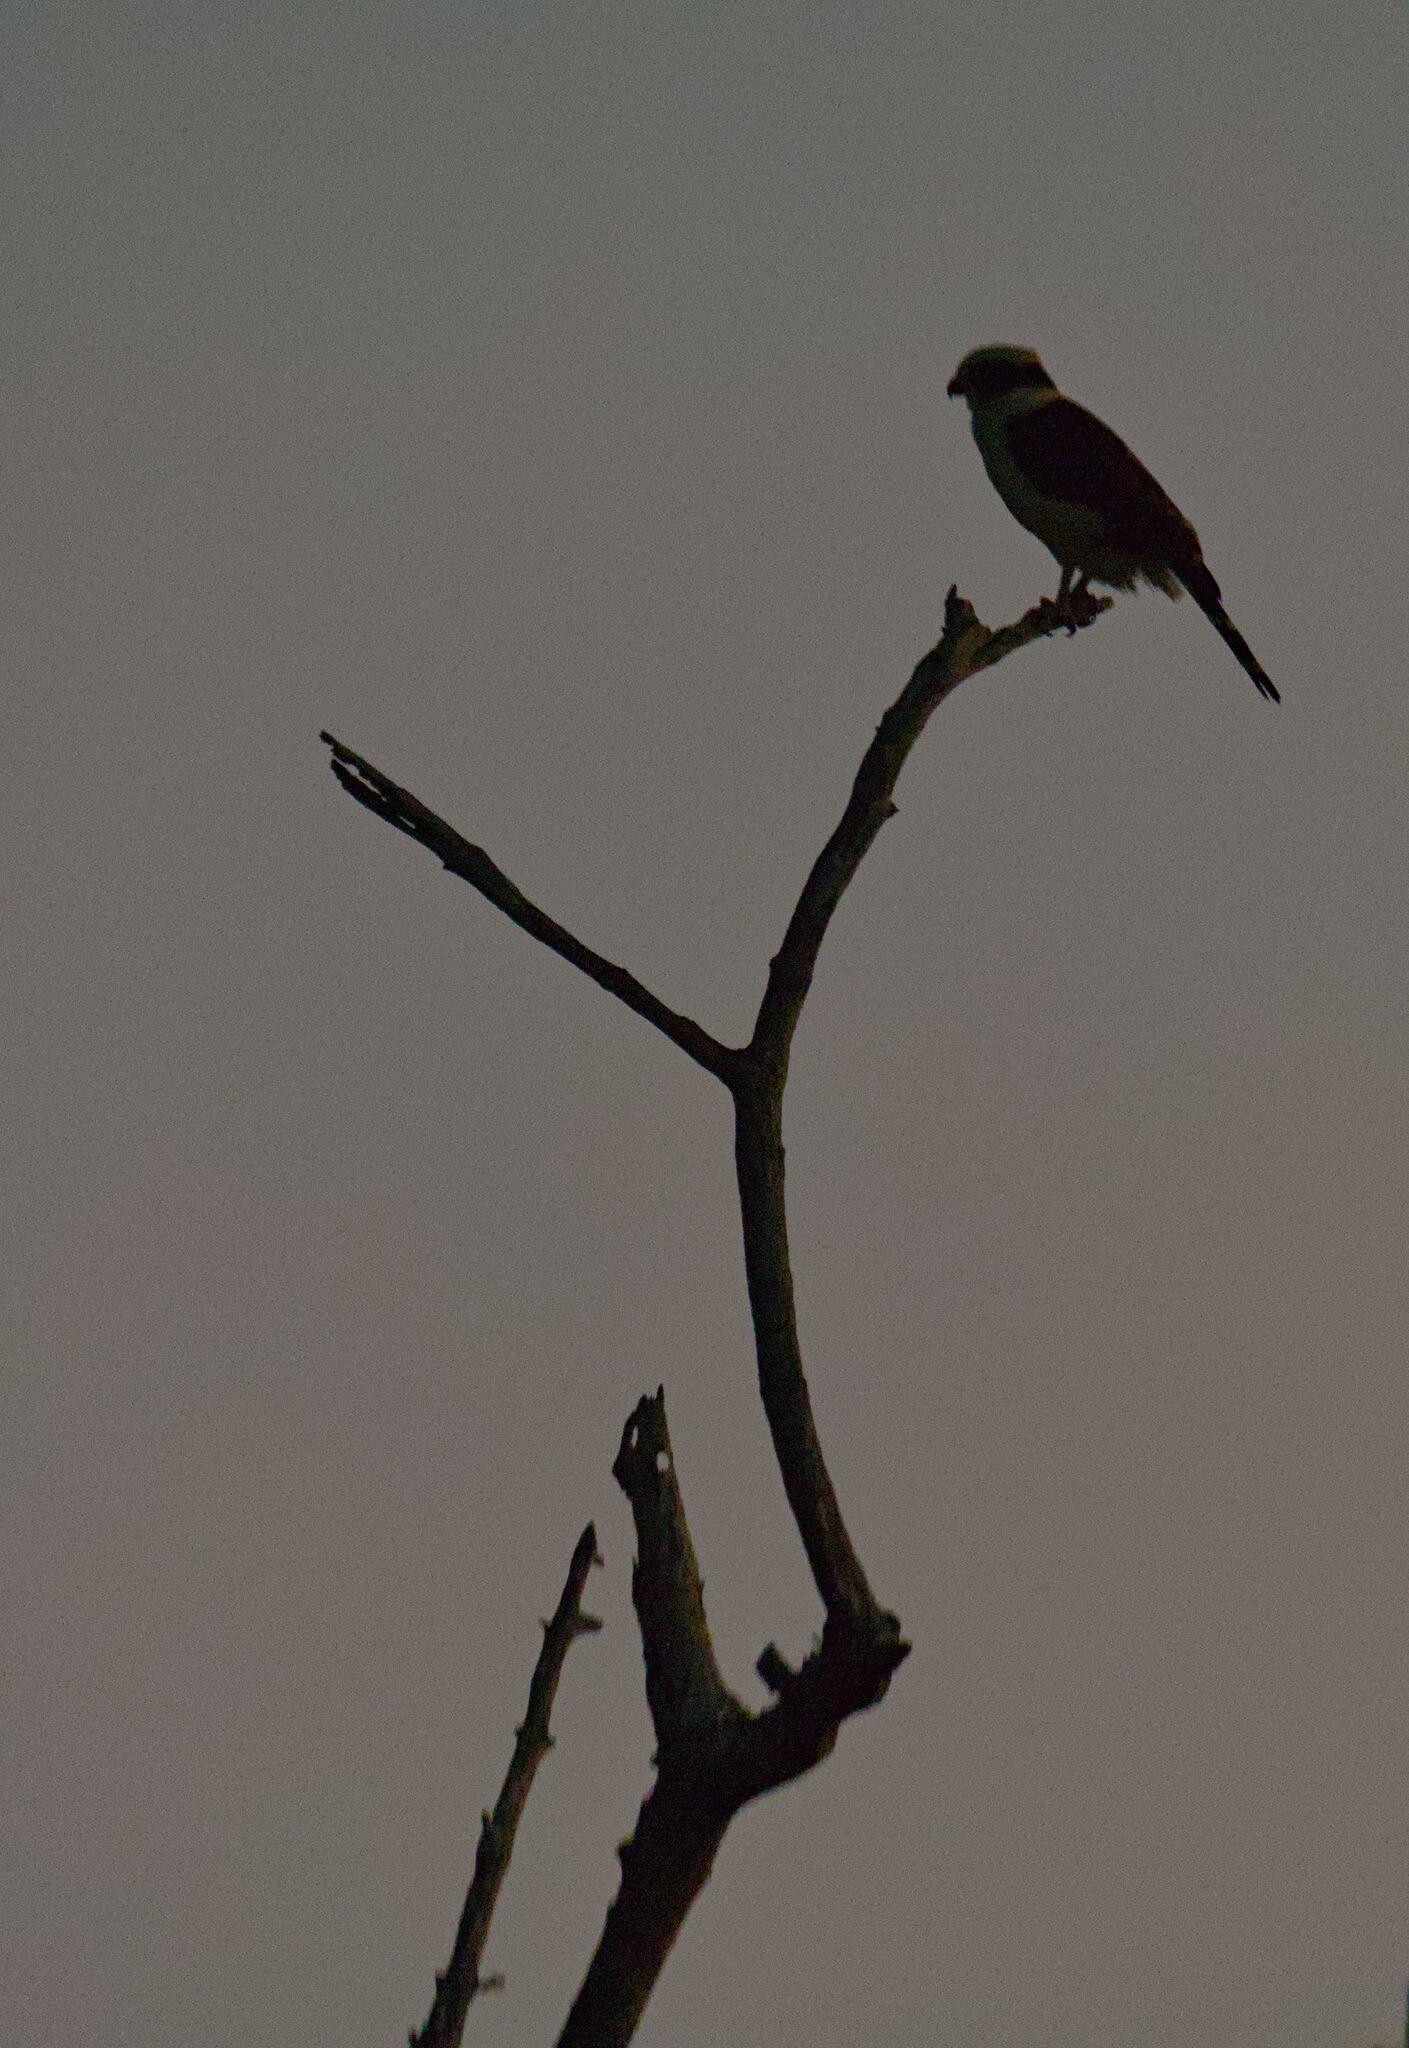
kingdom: Animalia
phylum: Chordata
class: Aves
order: Falconiformes
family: Falconidae
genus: Herpetotheres
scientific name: Herpetotheres cachinnans
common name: Laughing falcon
